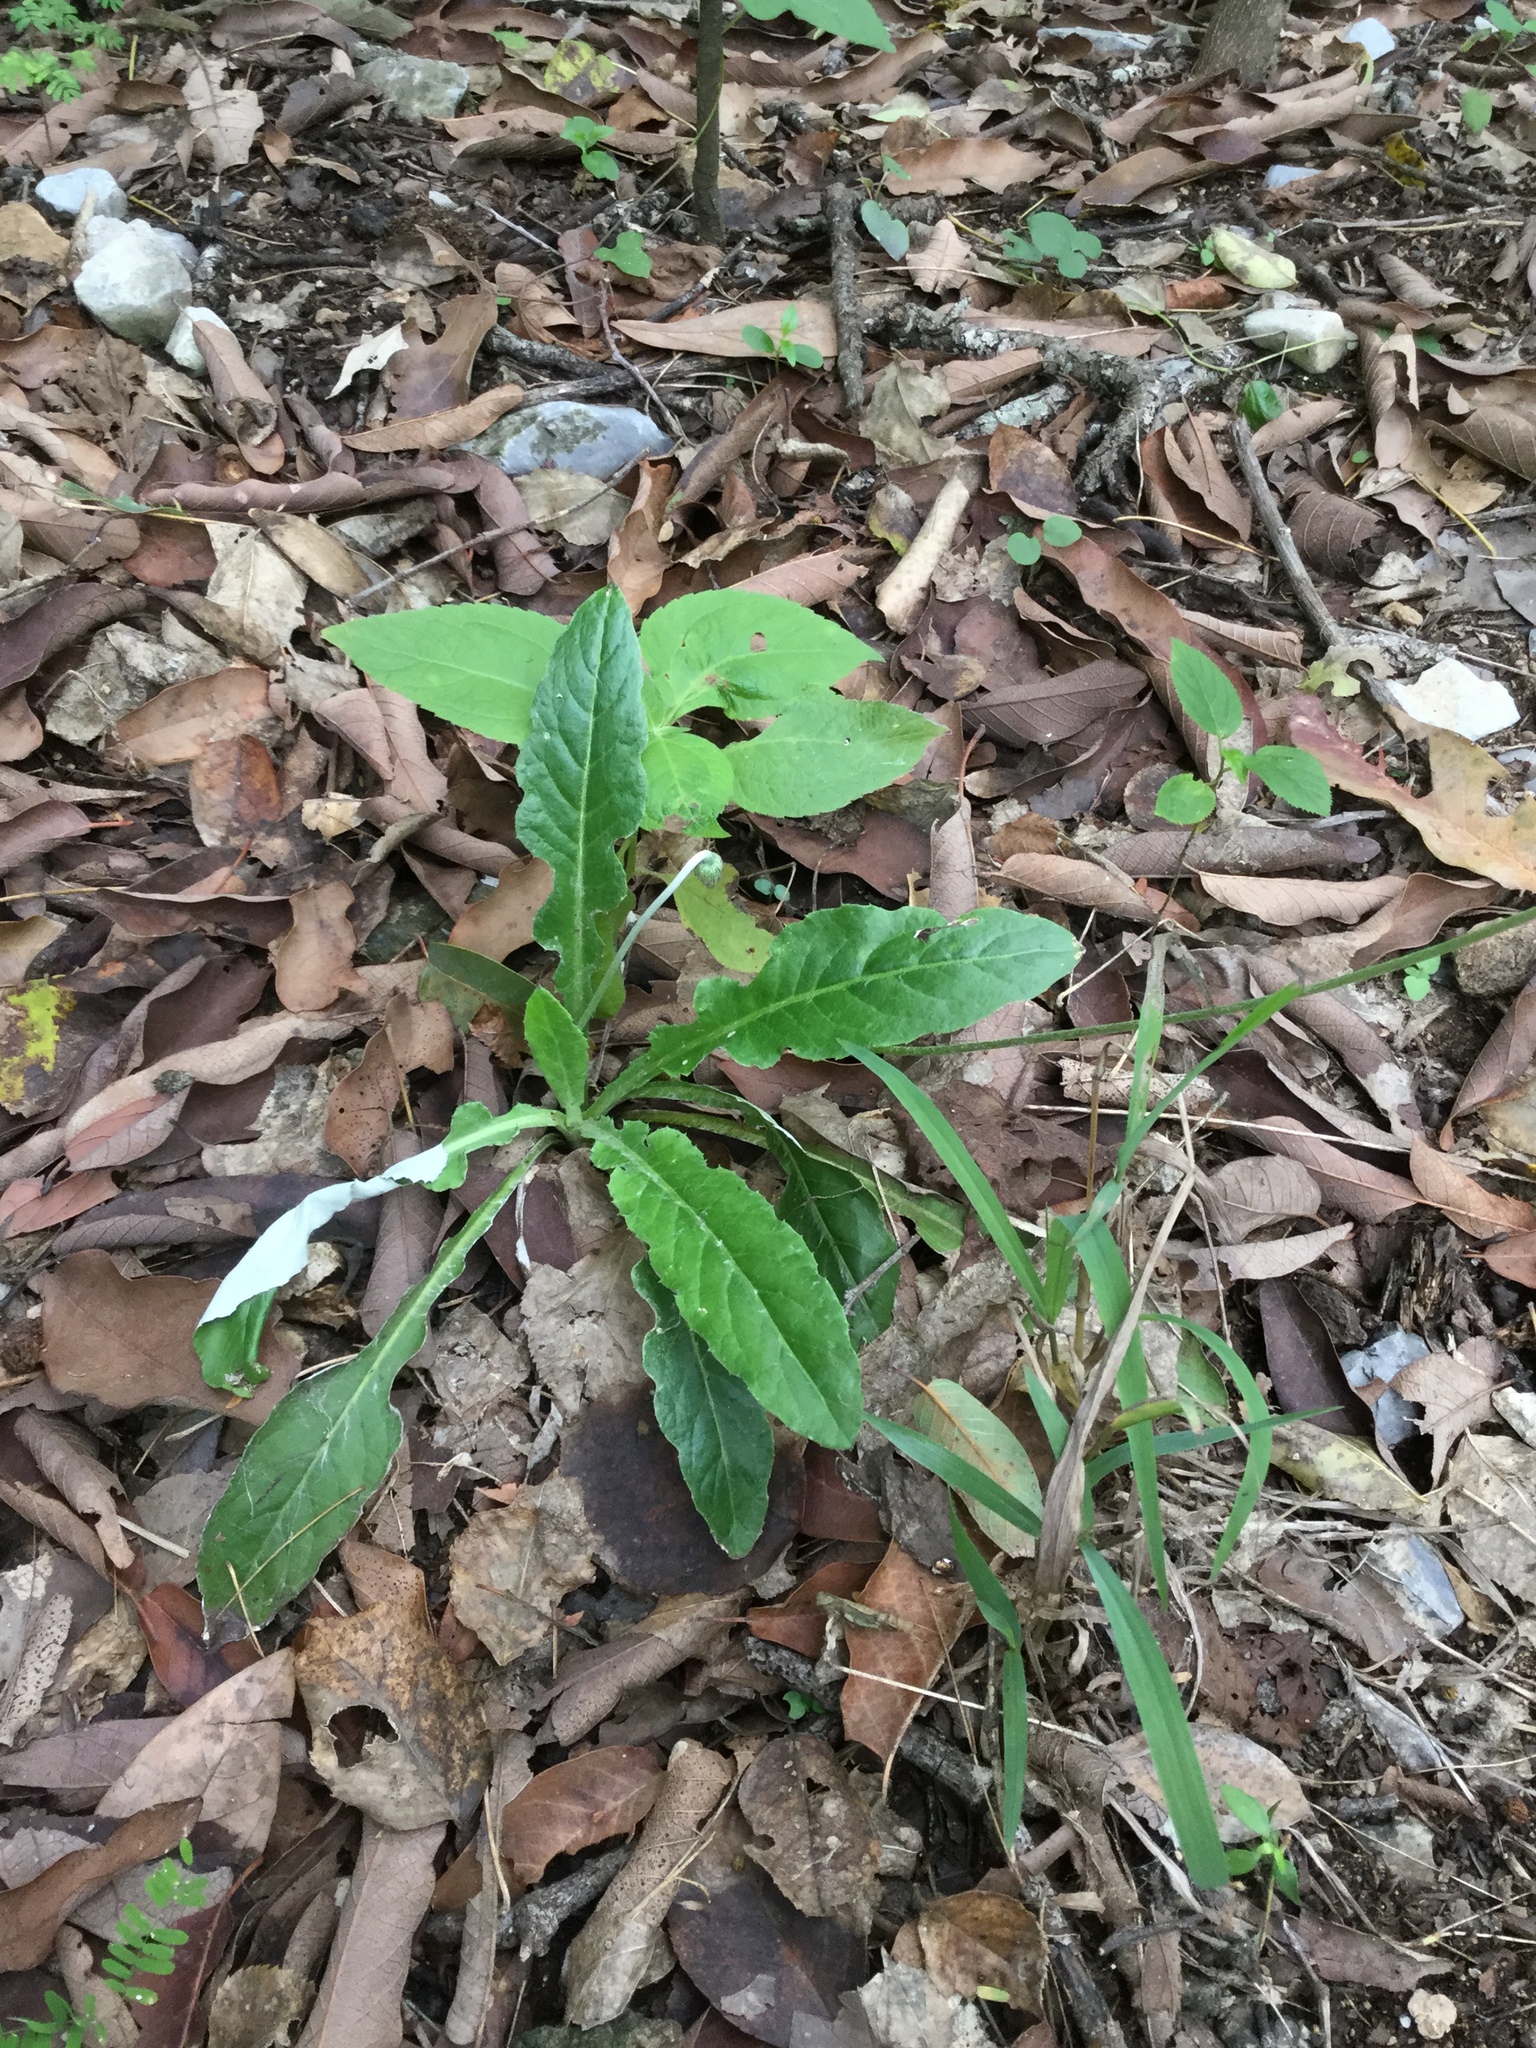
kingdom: Plantae
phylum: Tracheophyta
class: Magnoliopsida
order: Asterales
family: Asteraceae
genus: Chaptalia
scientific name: Chaptalia nutans
